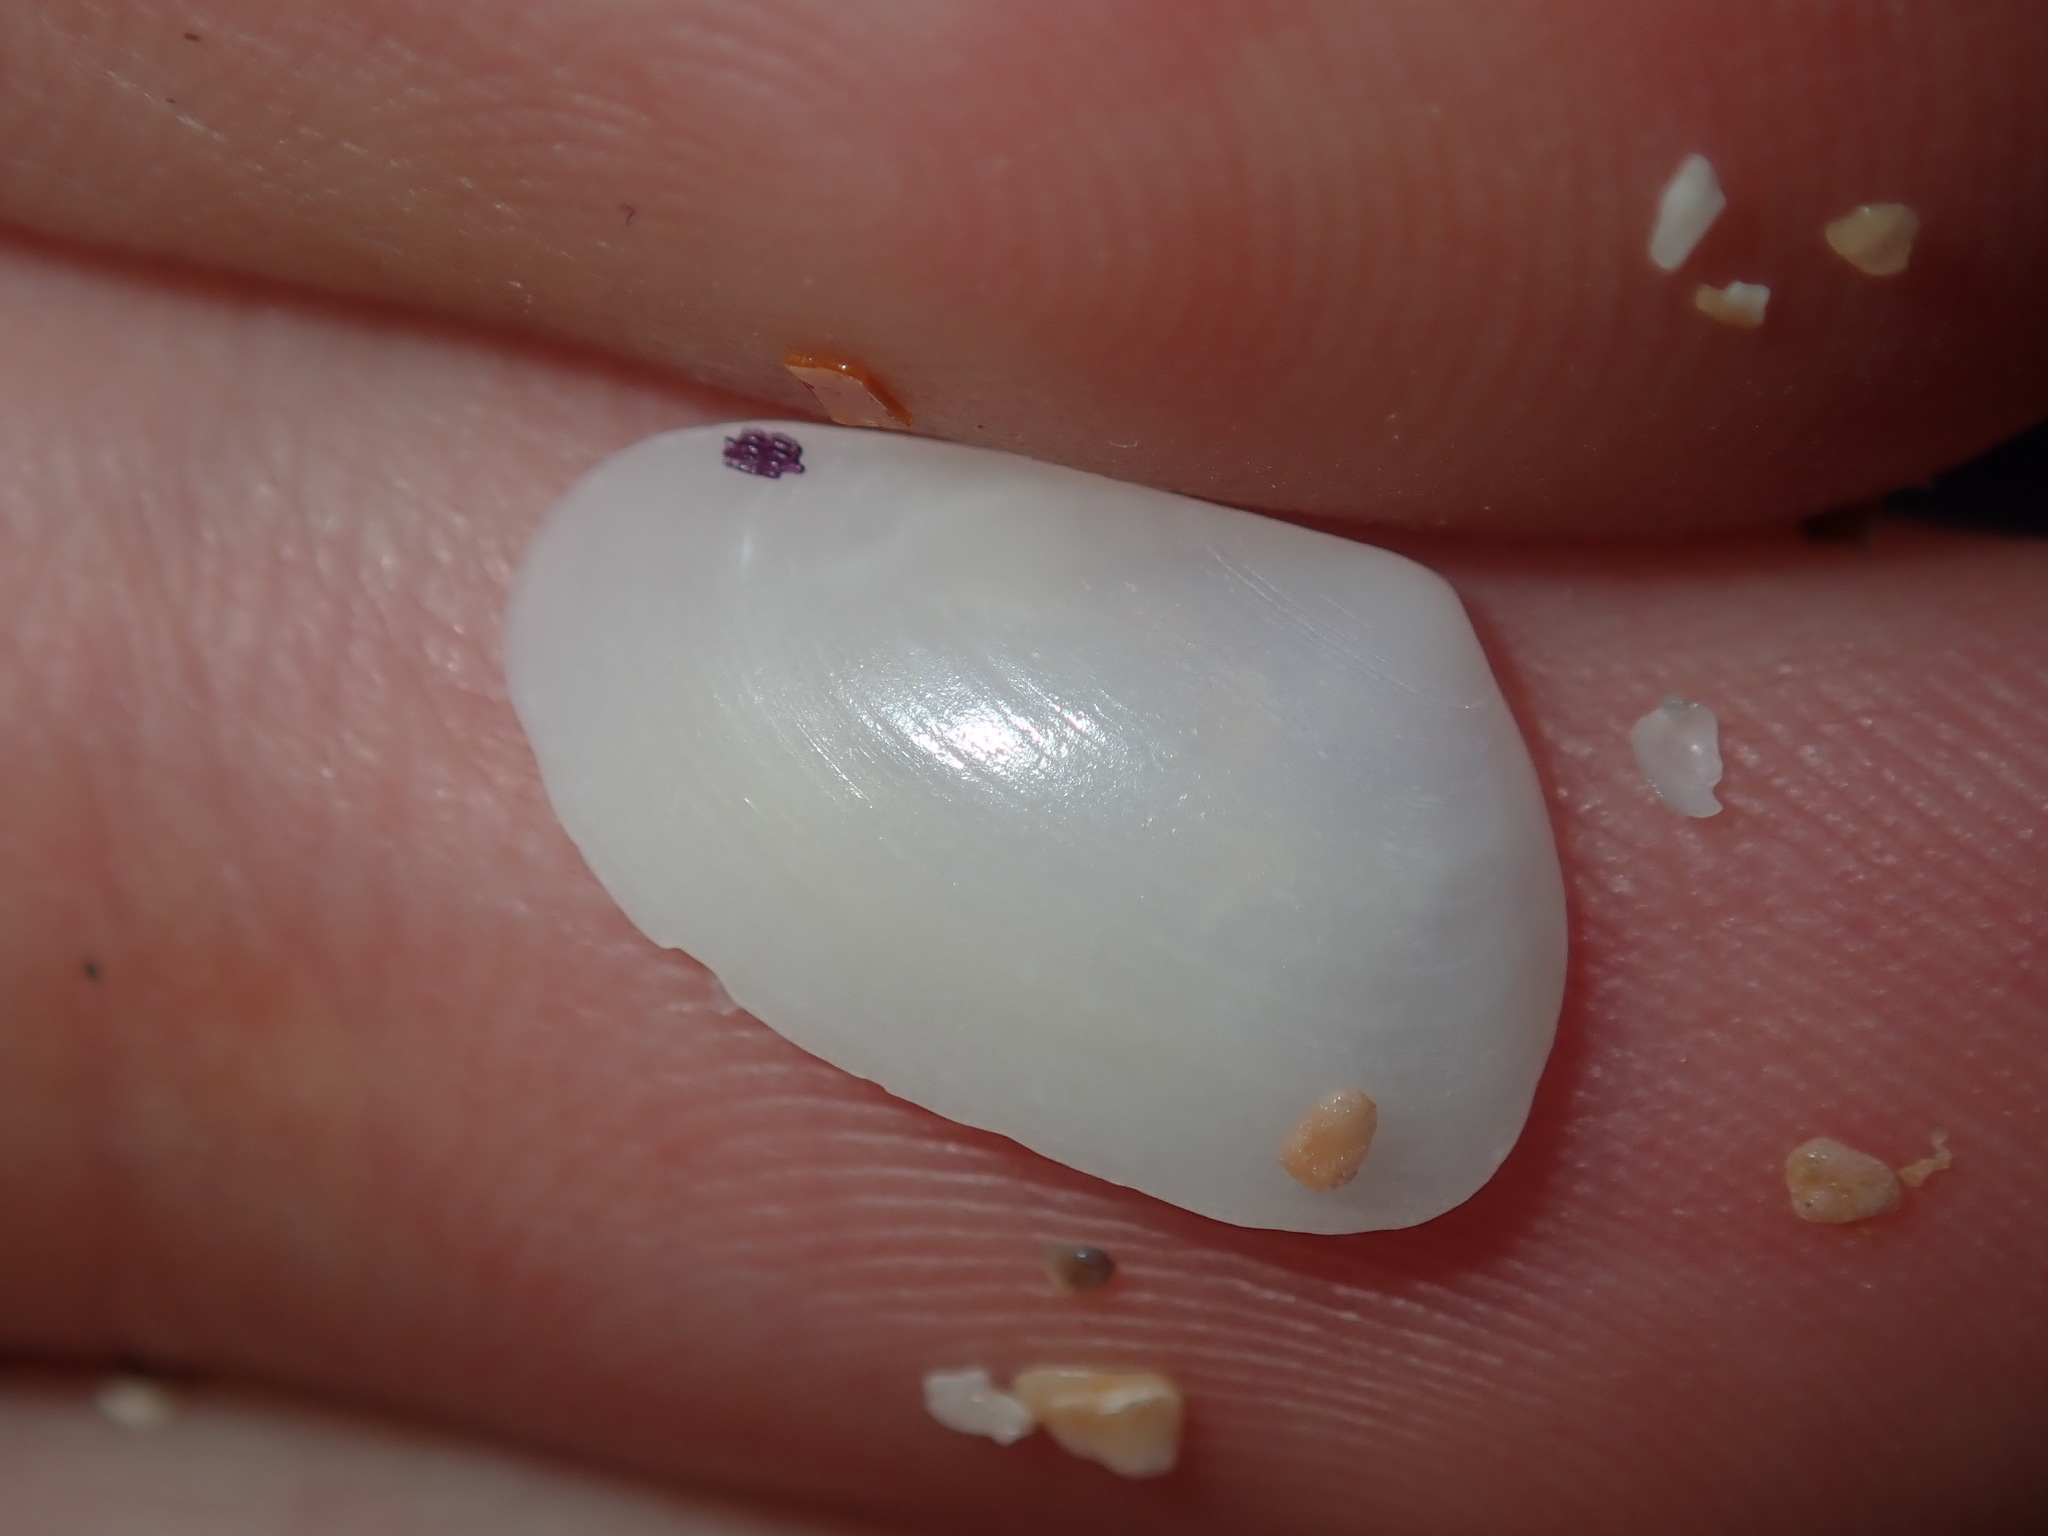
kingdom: Animalia
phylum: Mollusca
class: Bivalvia
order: Venerida
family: Mesodesmatidae
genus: Paphies
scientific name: Paphies angusta
